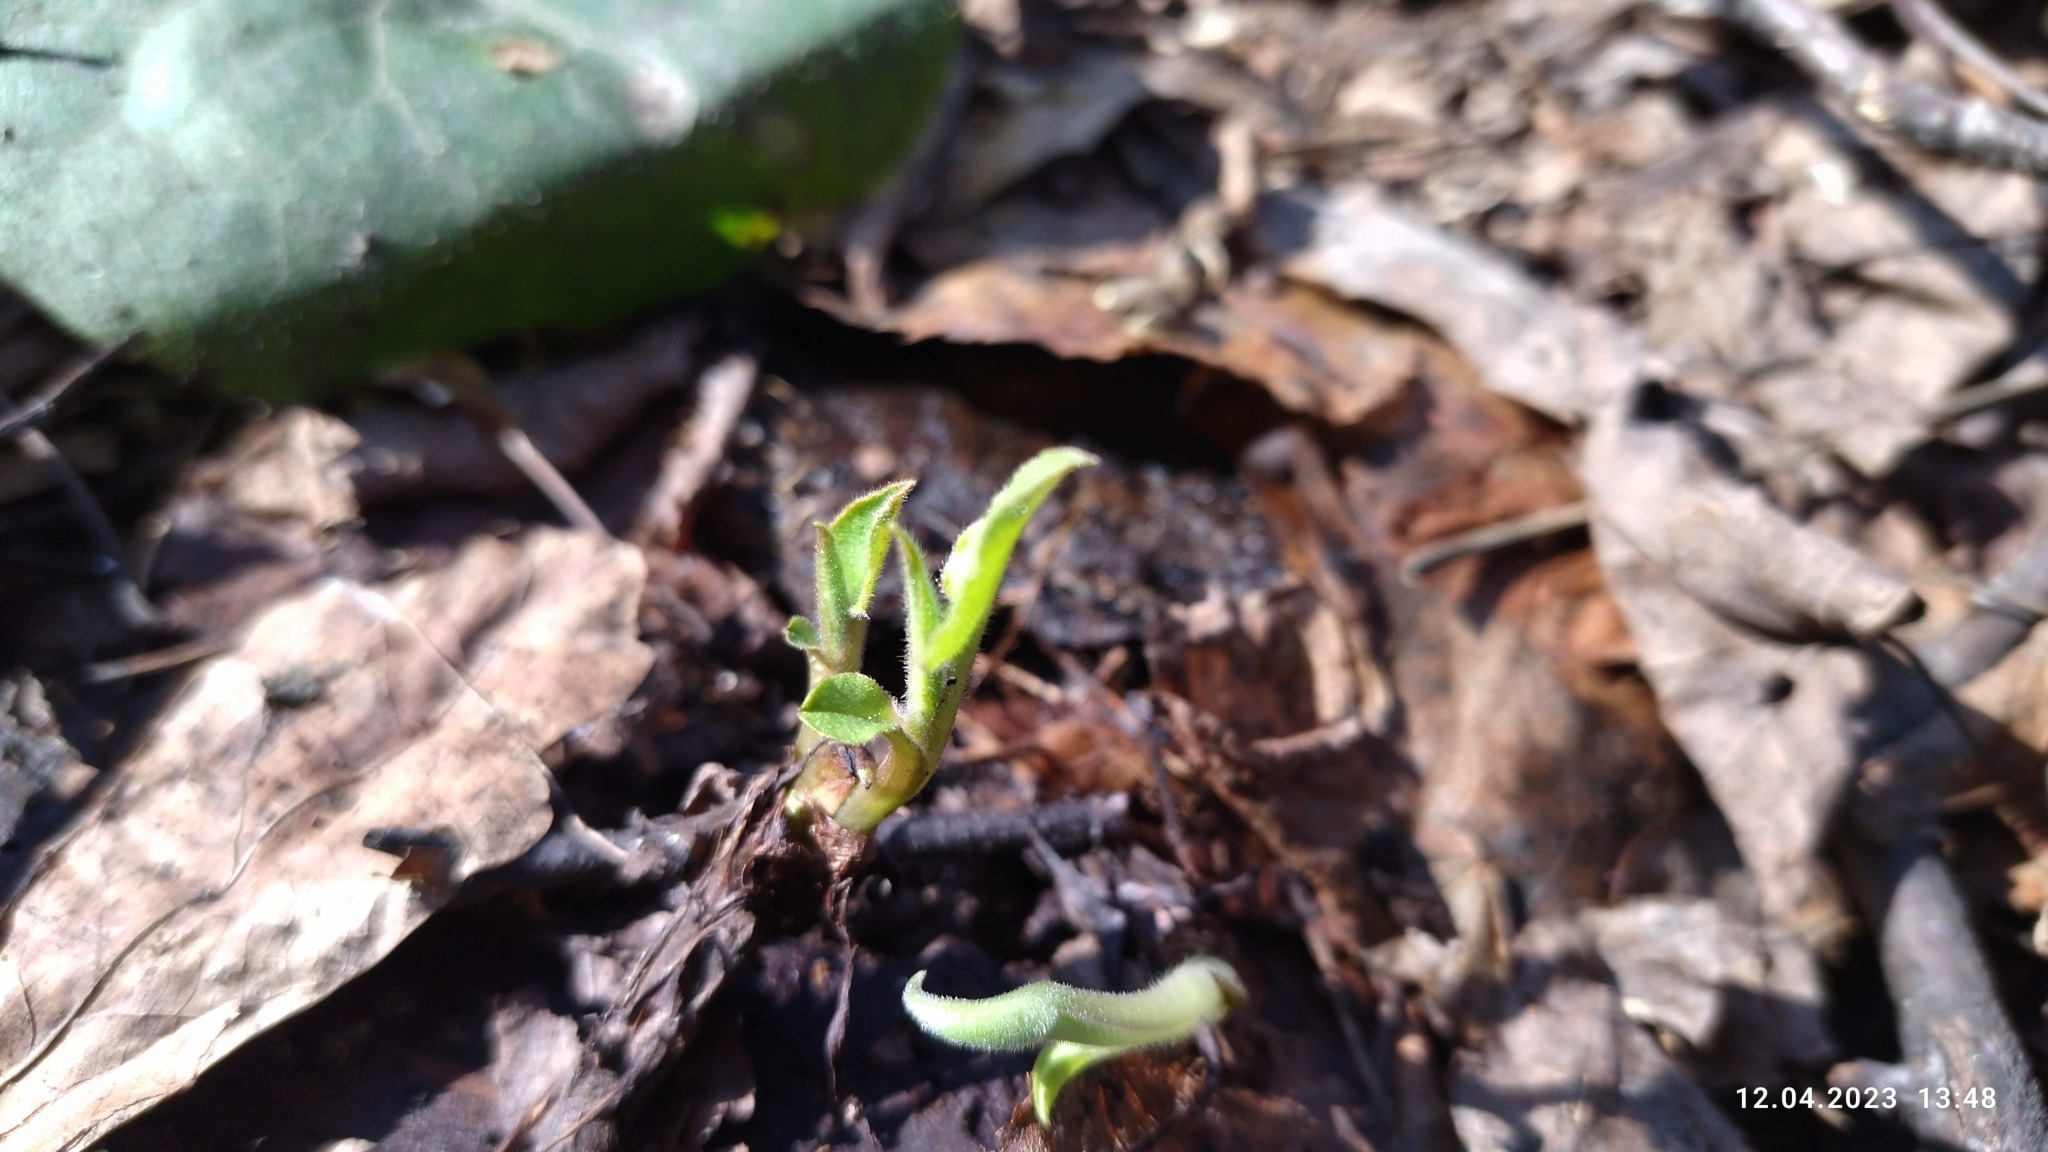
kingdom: Plantae
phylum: Tracheophyta
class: Magnoliopsida
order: Boraginales
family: Boraginaceae
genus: Pulmonaria
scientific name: Pulmonaria obscura
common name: Suffolk lungwort
